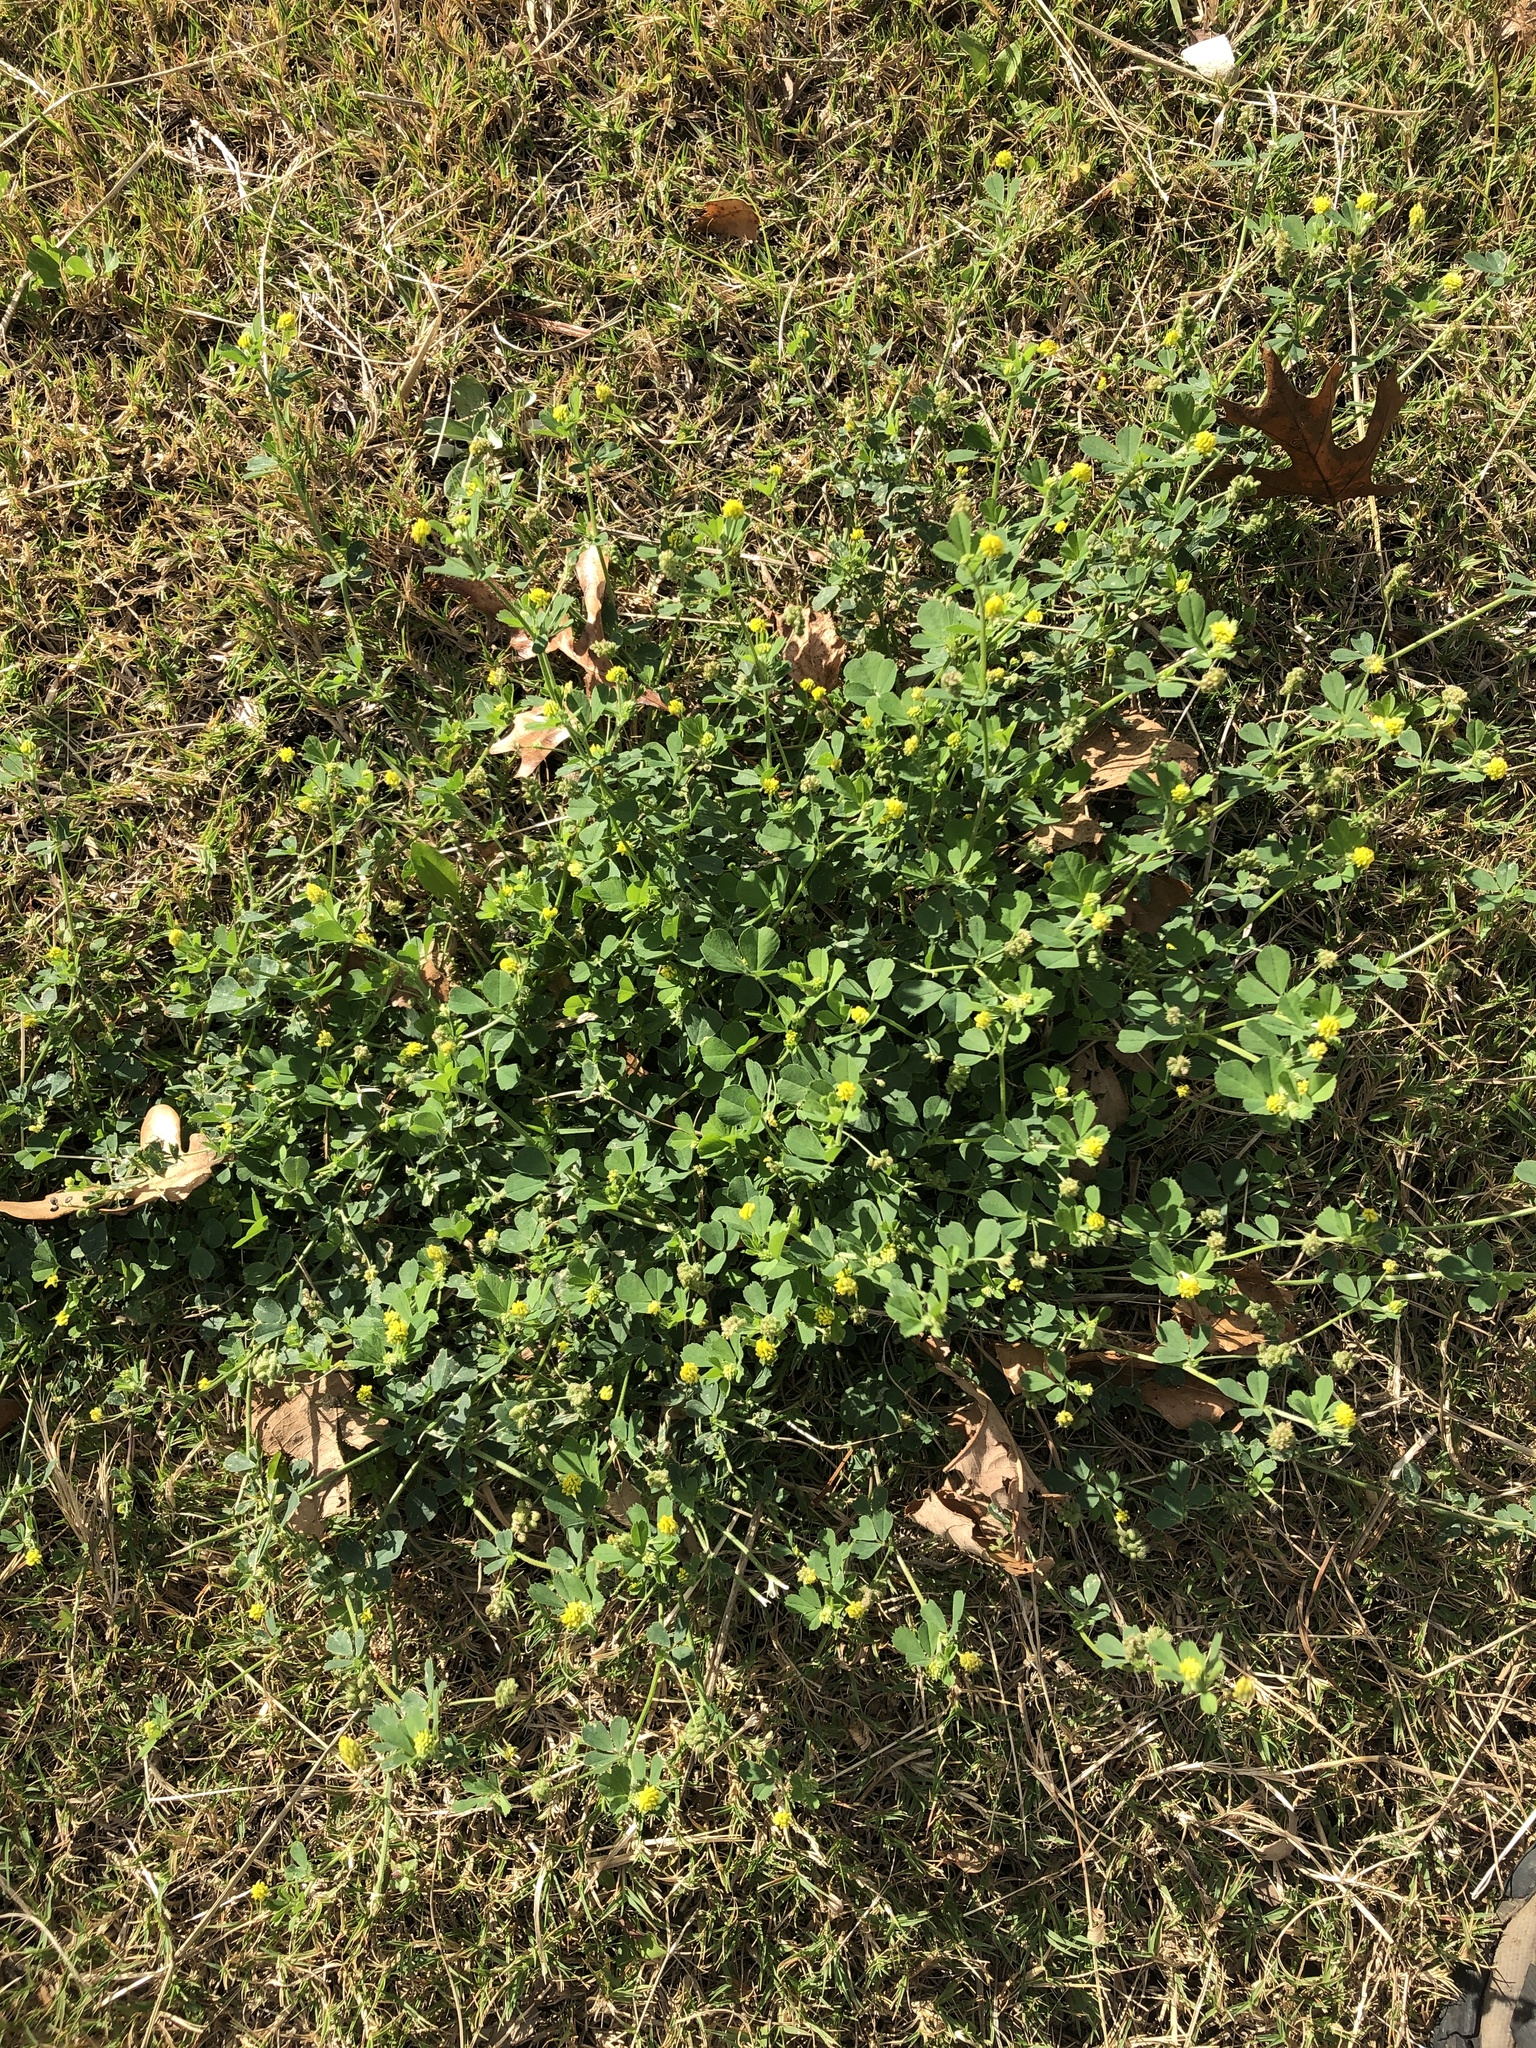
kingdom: Plantae
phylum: Tracheophyta
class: Magnoliopsida
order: Fabales
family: Fabaceae
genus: Medicago
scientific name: Medicago lupulina
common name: Black medick
